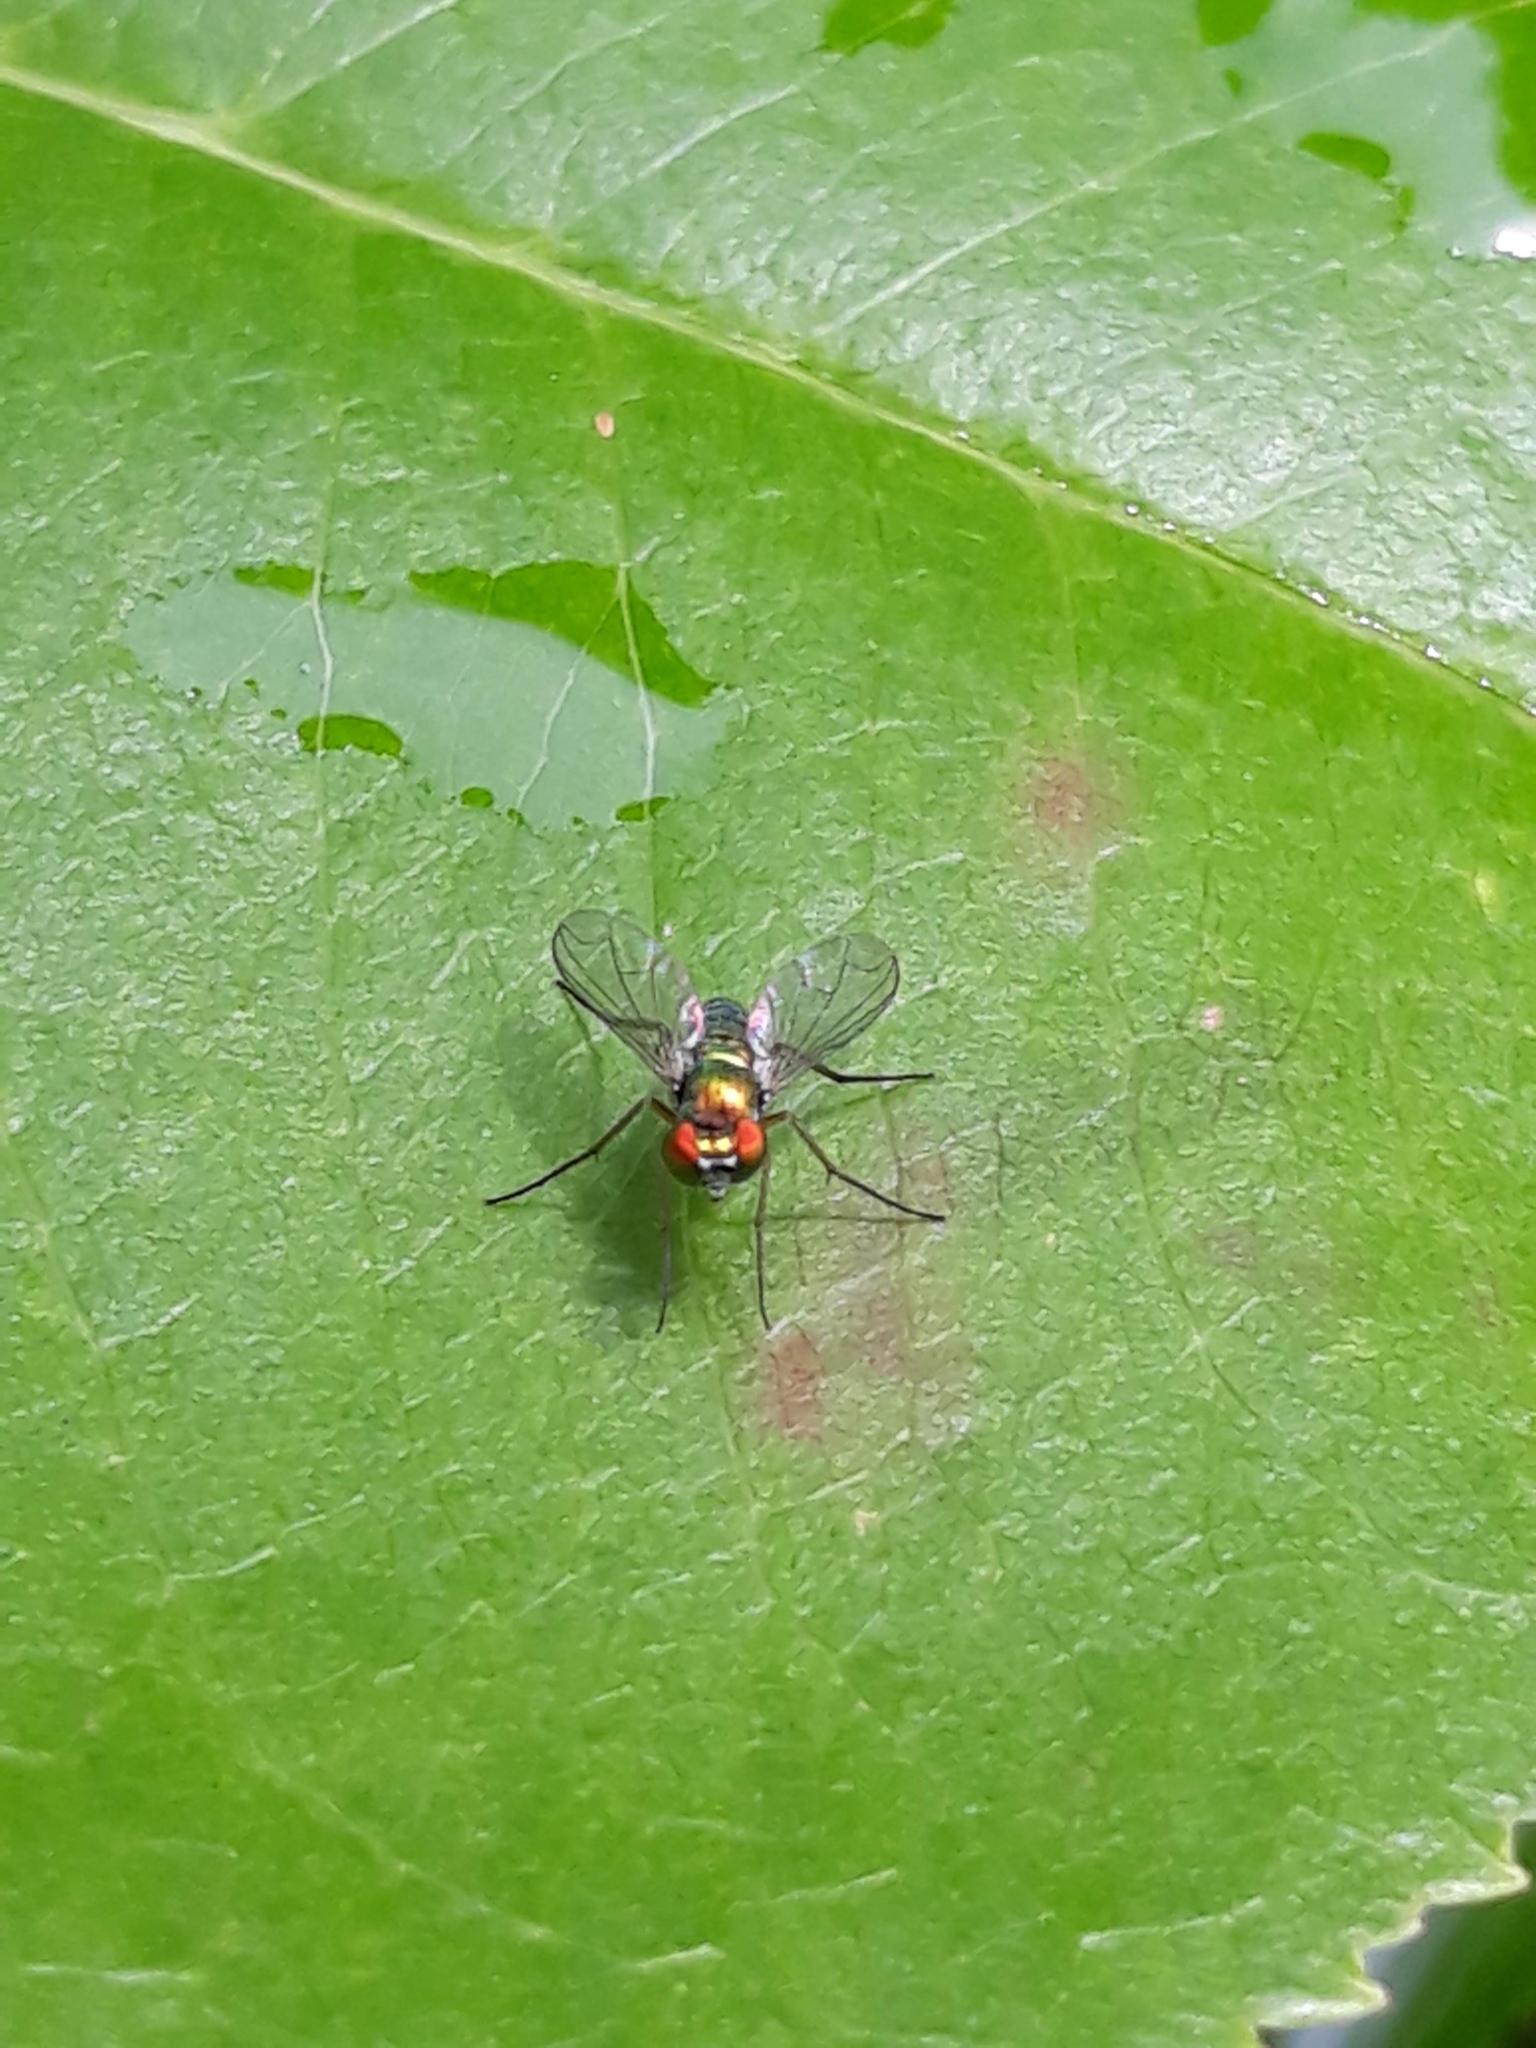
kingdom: Animalia
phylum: Arthropoda
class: Insecta
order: Diptera
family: Dolichopodidae
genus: Condylostylus
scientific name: Condylostylus
